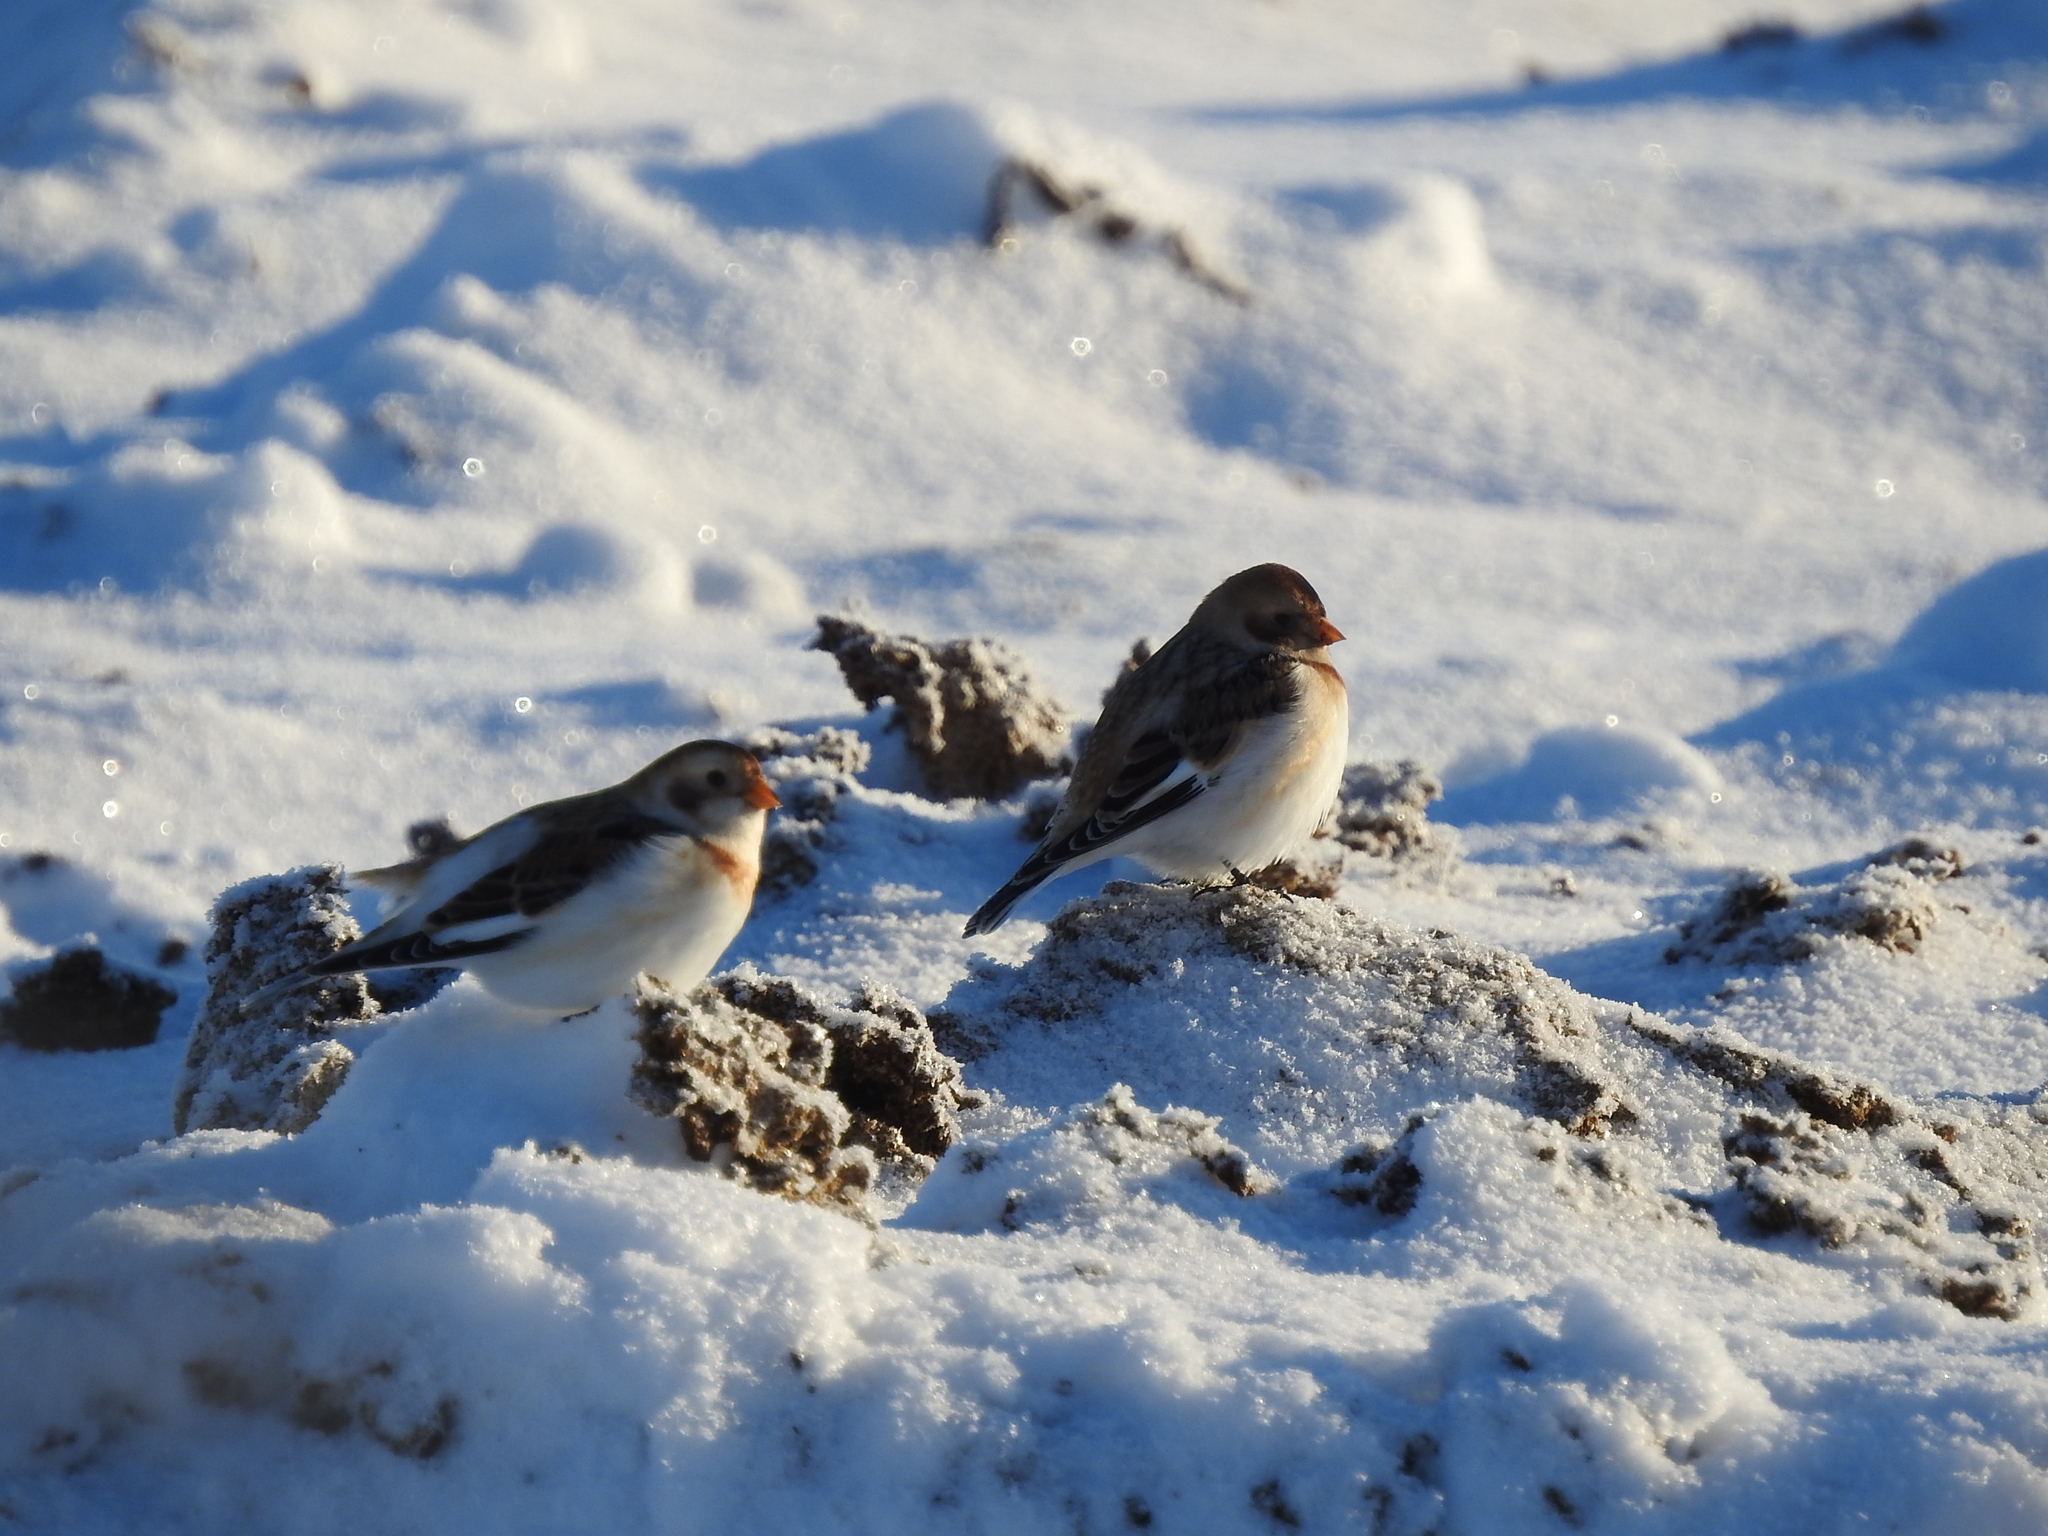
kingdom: Animalia
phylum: Chordata
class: Aves
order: Passeriformes
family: Calcariidae
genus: Plectrophenax
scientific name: Plectrophenax nivalis
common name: Snow bunting
